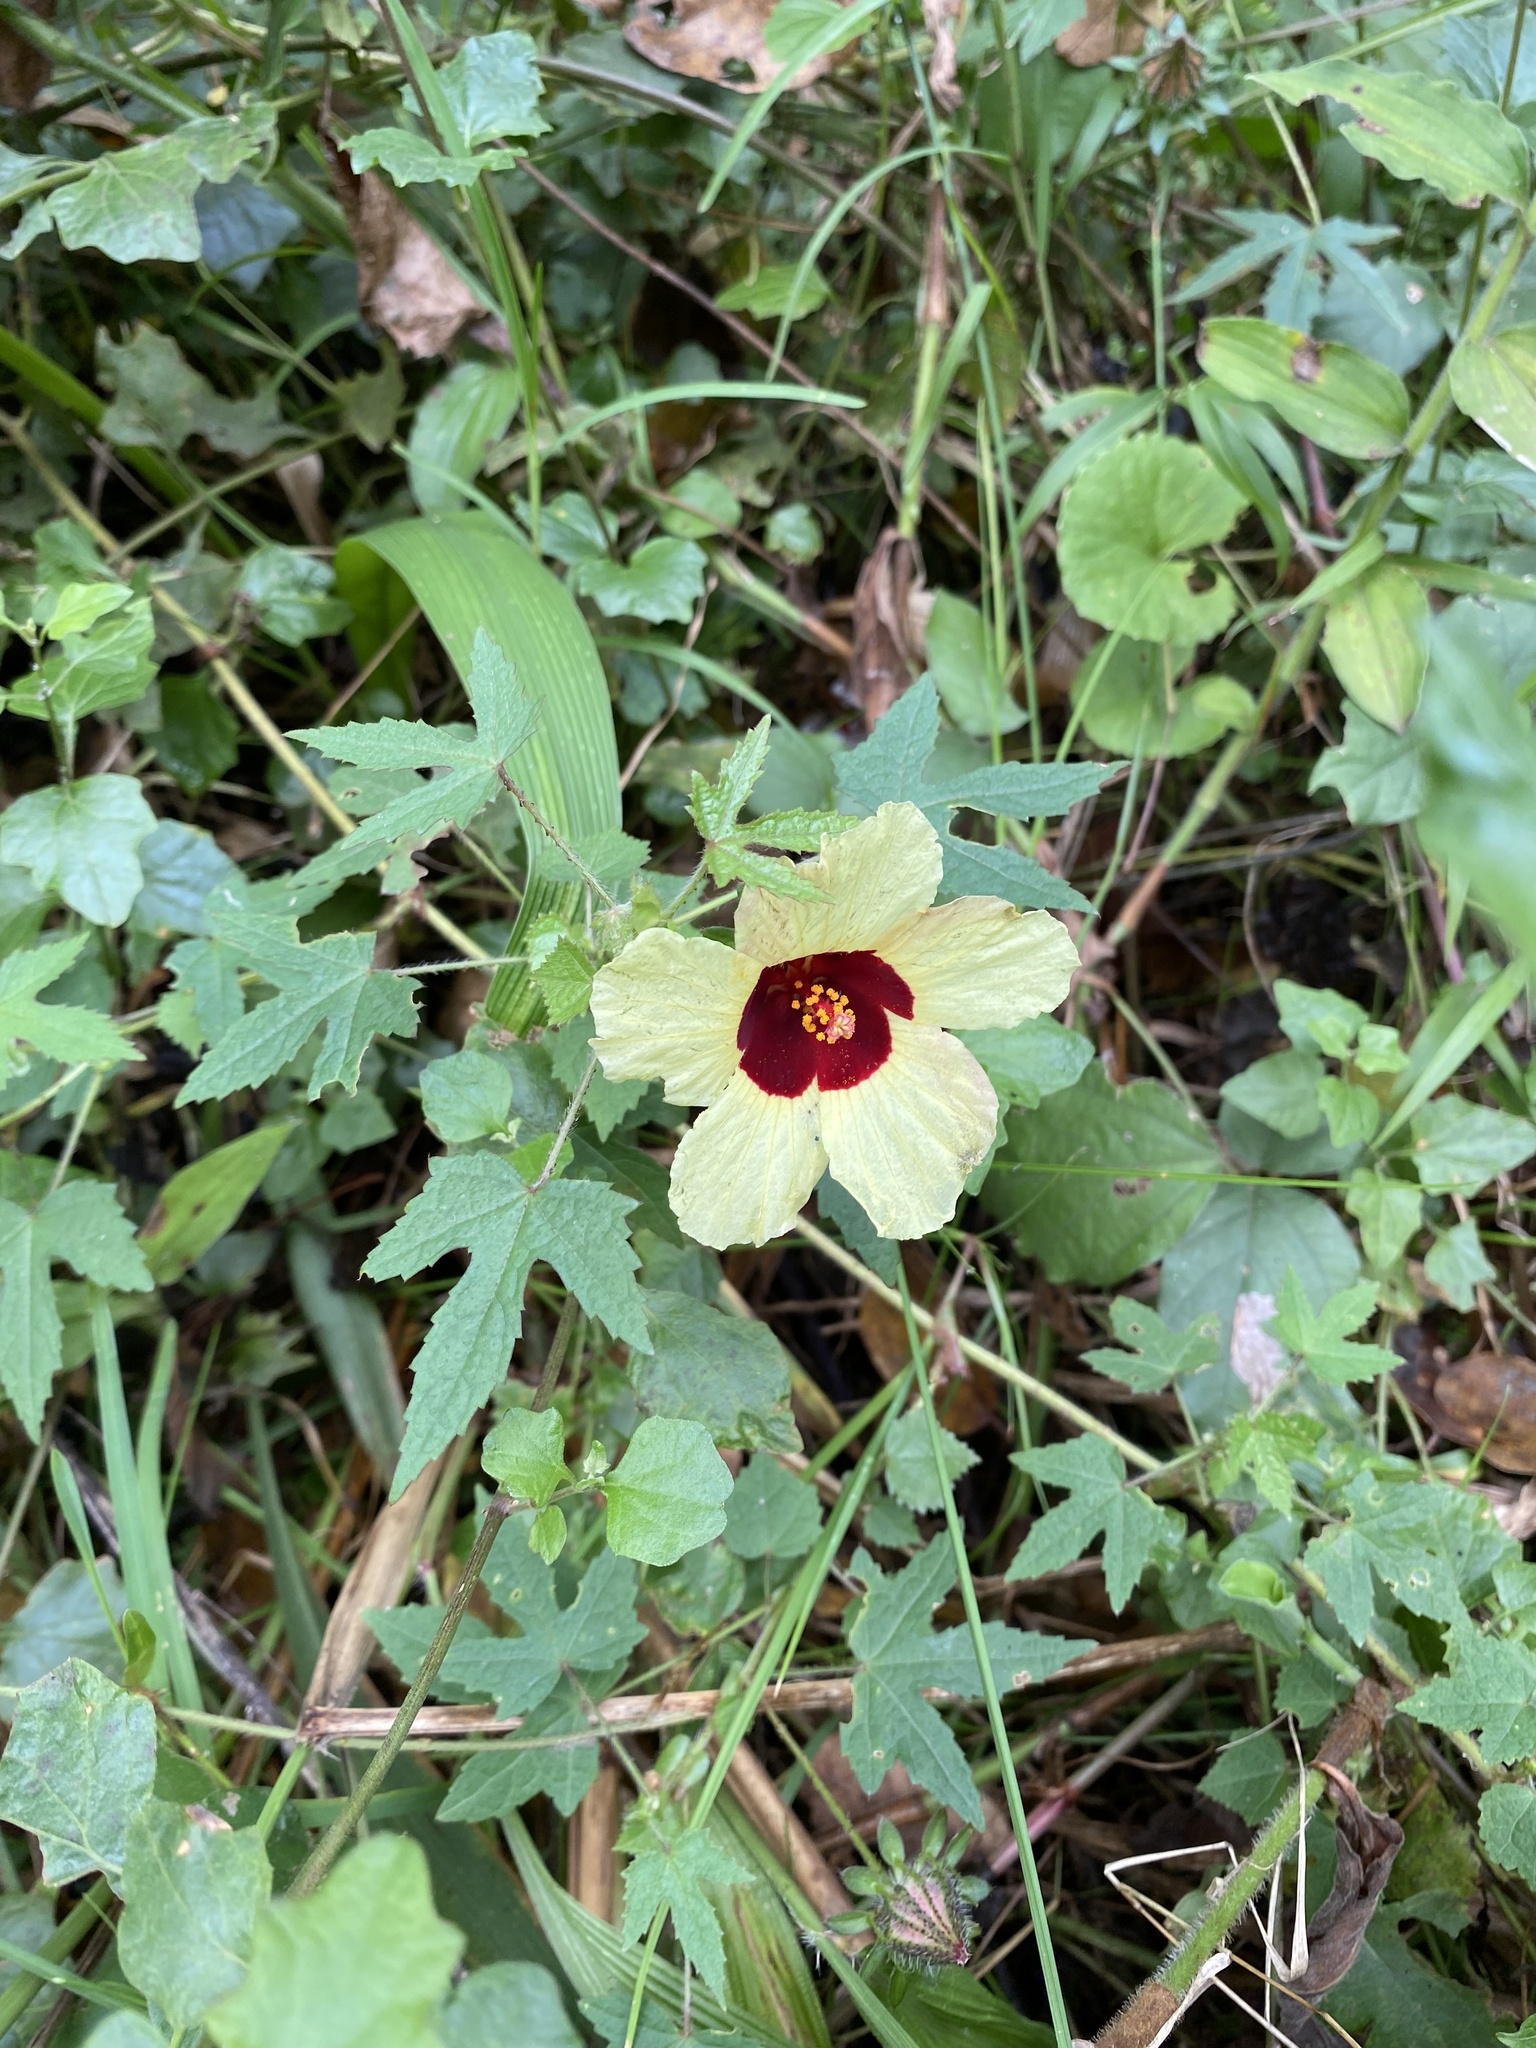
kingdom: Plantae
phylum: Tracheophyta
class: Magnoliopsida
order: Malvales
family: Malvaceae
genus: Hibiscus
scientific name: Hibiscus surattensis
